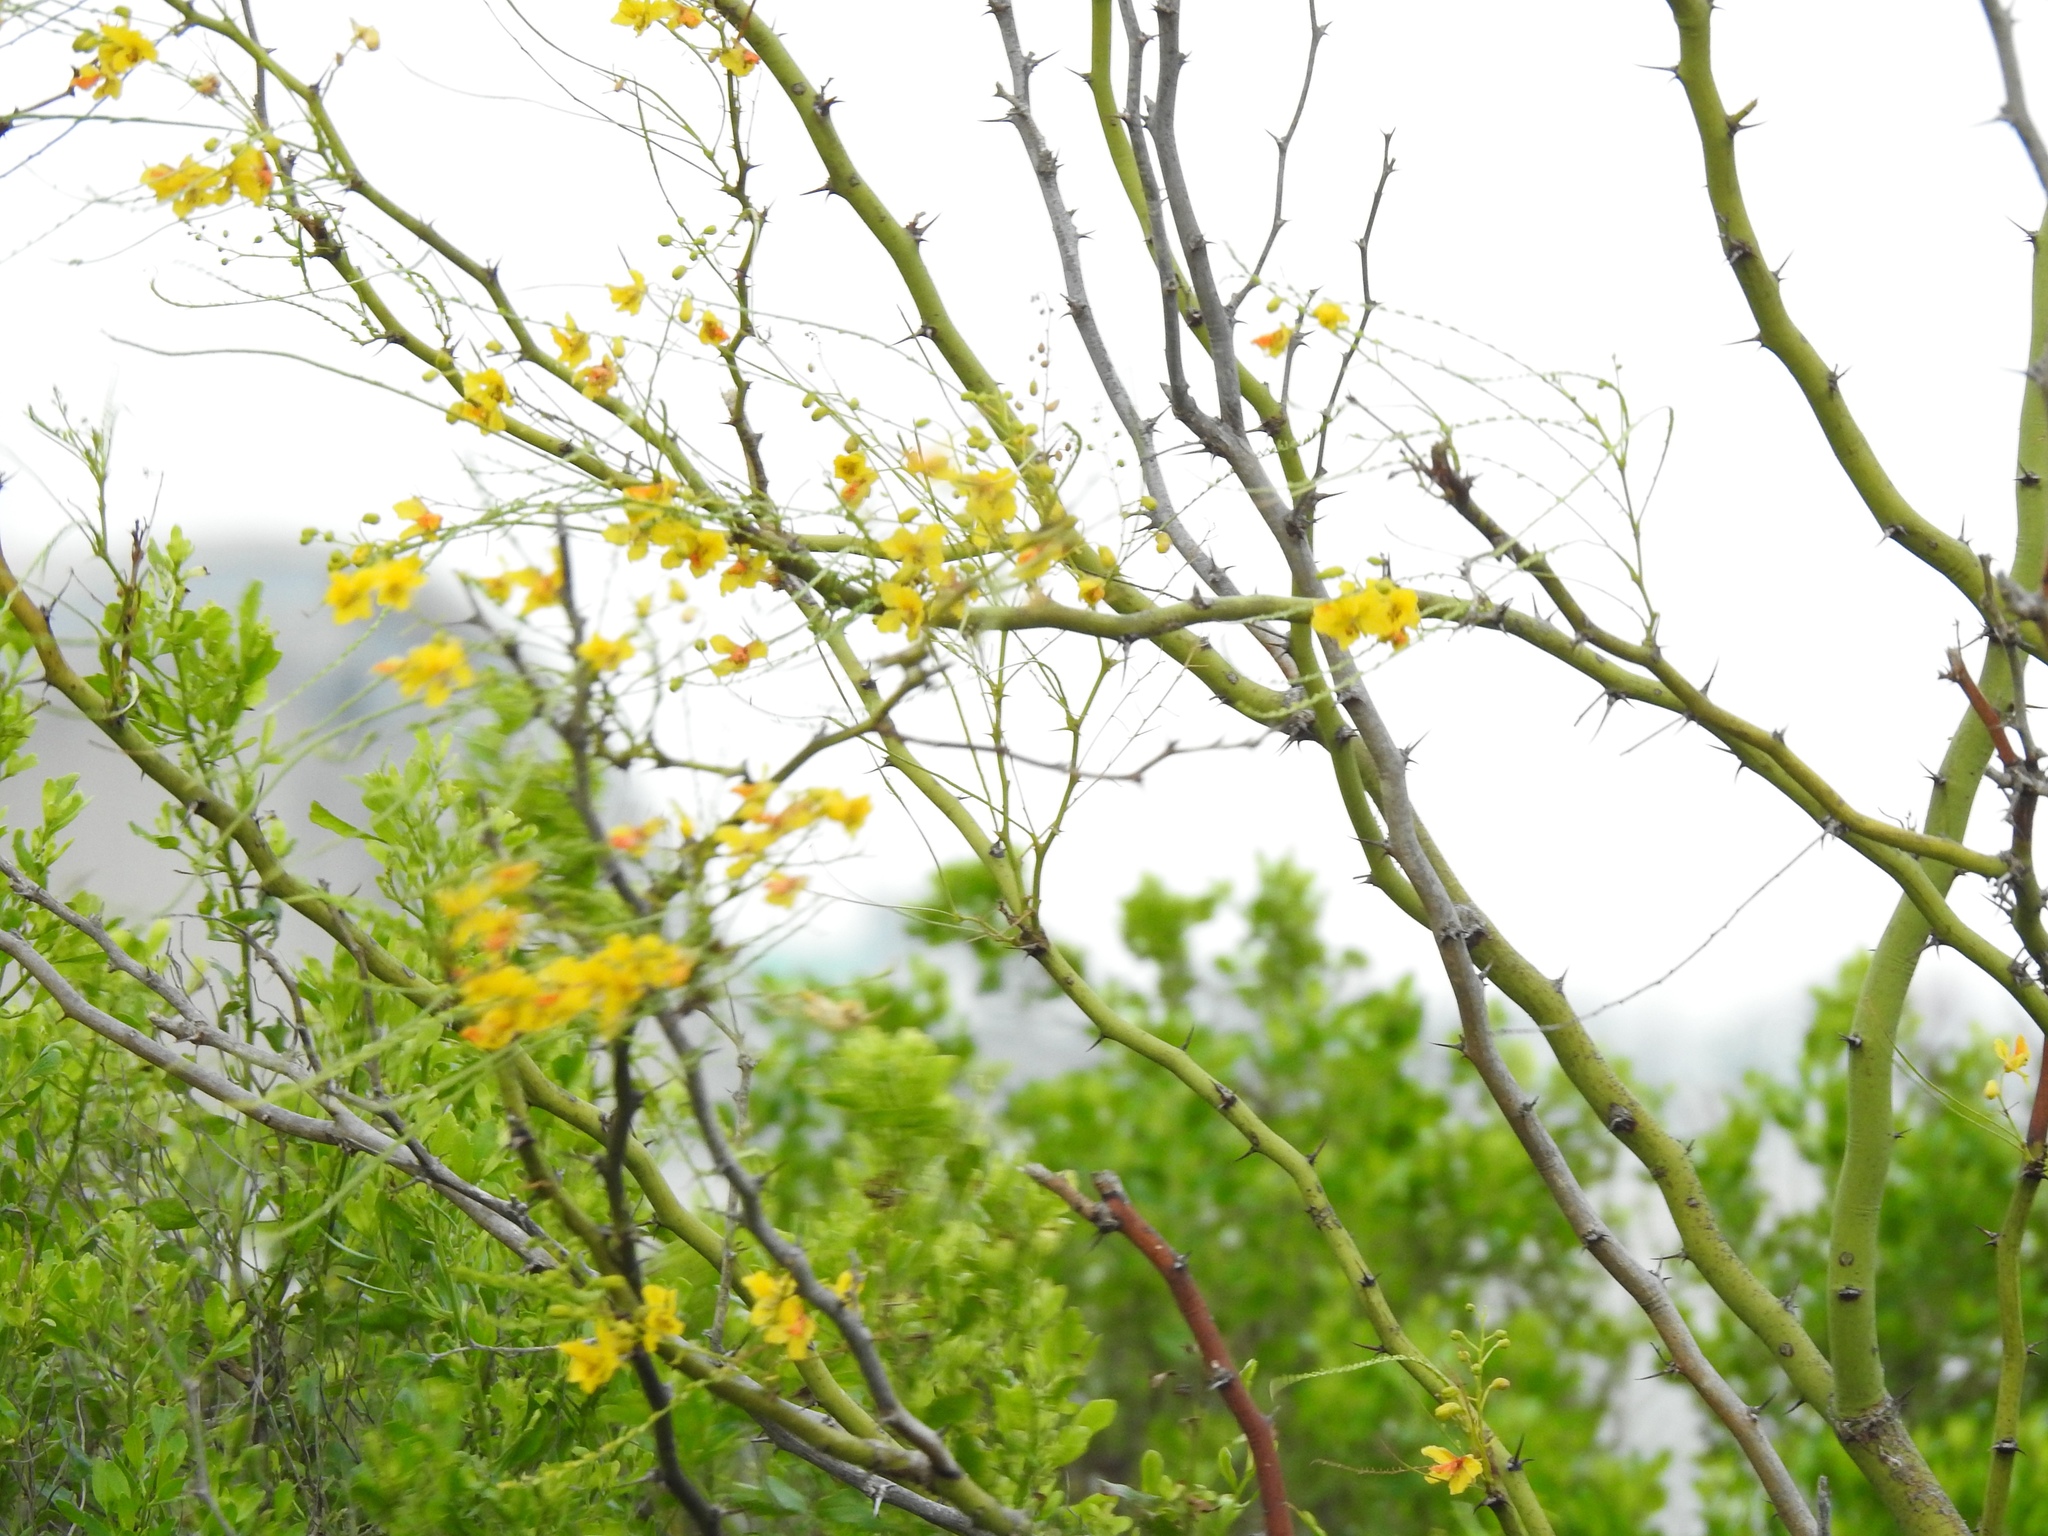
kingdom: Plantae
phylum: Tracheophyta
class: Magnoliopsida
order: Fabales
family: Fabaceae
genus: Parkinsonia
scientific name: Parkinsonia aculeata
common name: Jerusalem thorn
